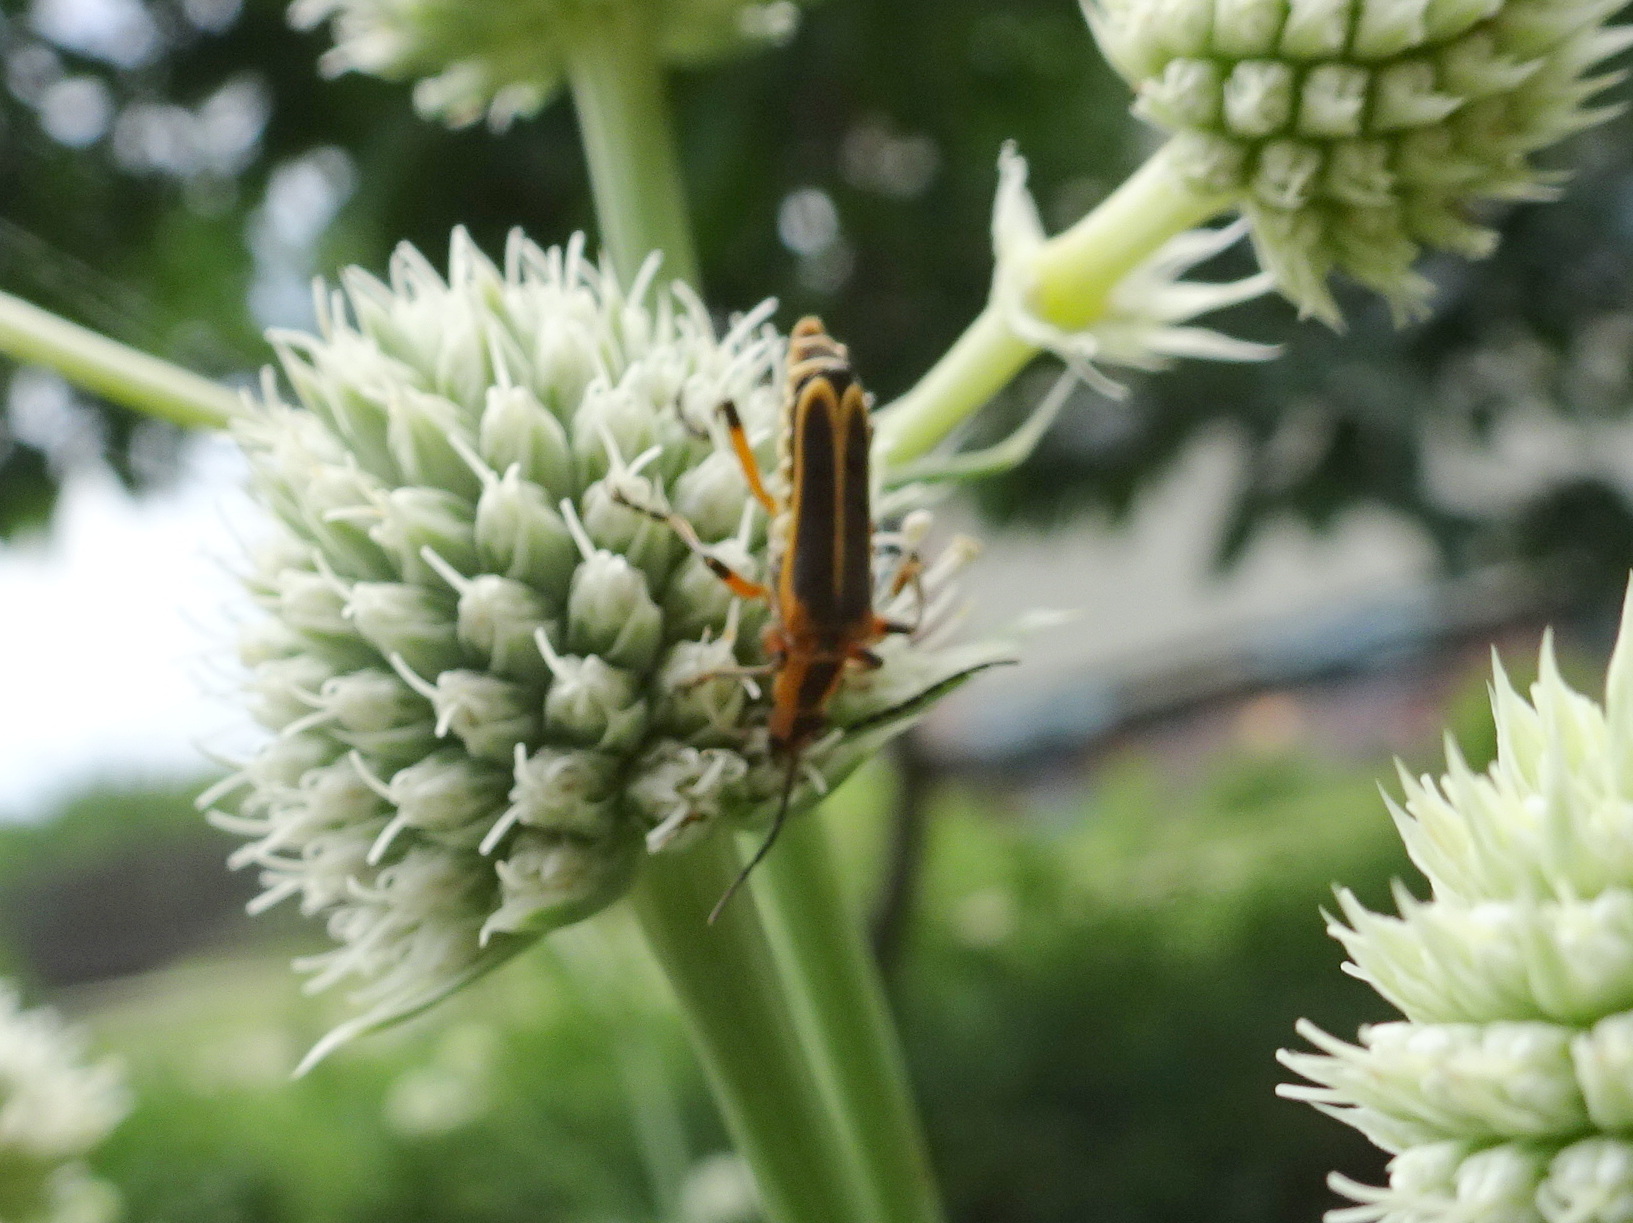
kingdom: Animalia
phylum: Arthropoda
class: Insecta
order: Coleoptera
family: Cantharidae
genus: Chauliognathus
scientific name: Chauliognathus marginatus
